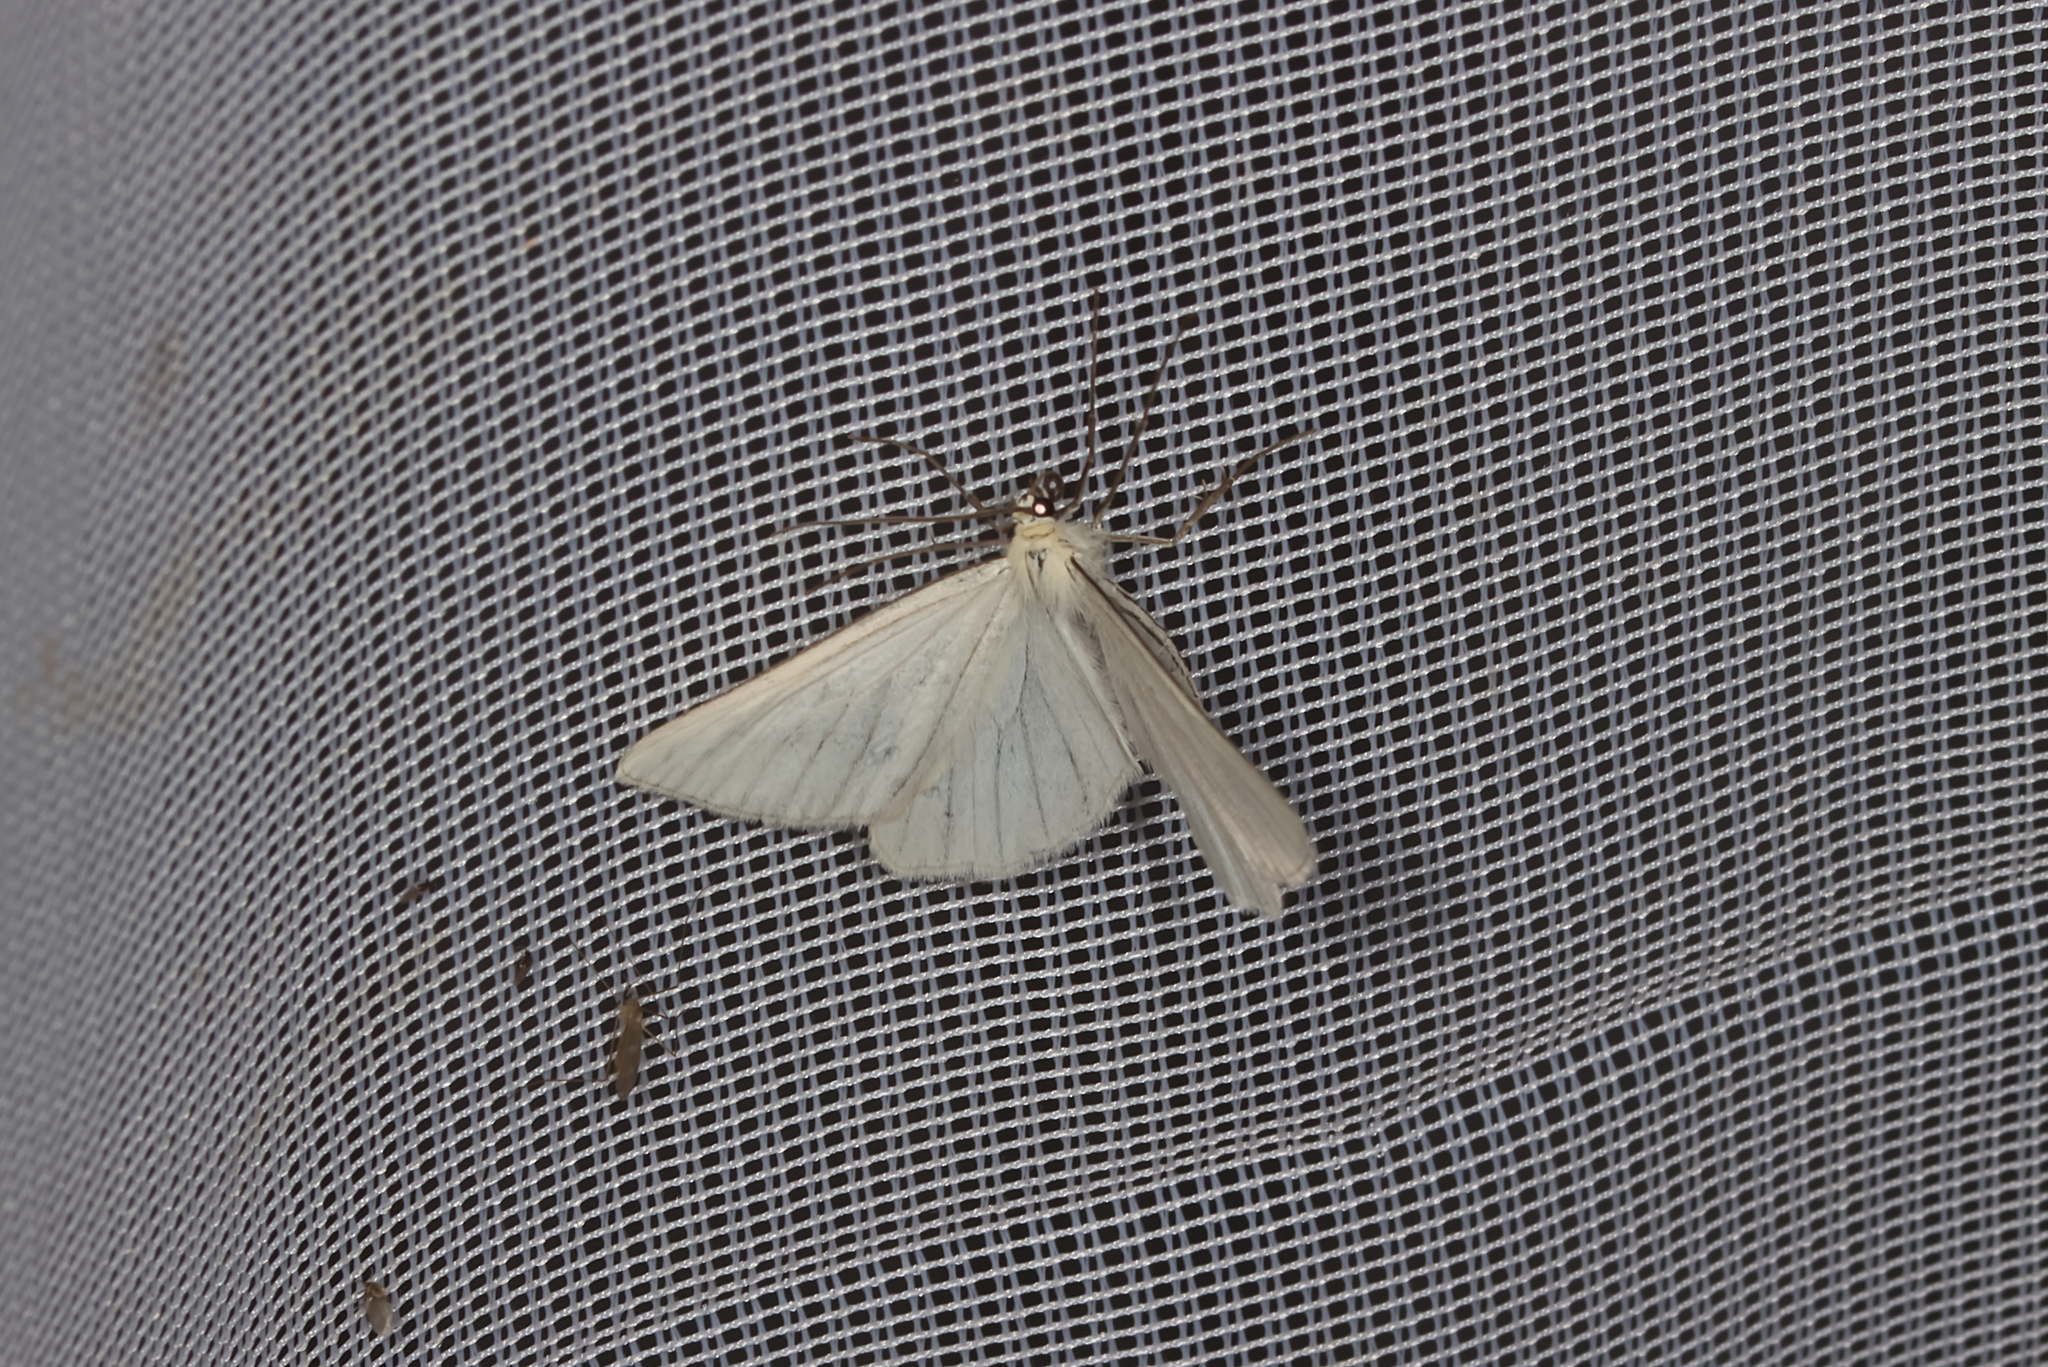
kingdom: Animalia
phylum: Arthropoda
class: Insecta
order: Lepidoptera
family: Geometridae
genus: Siona
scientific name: Siona lineata
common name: Black-veined moth
